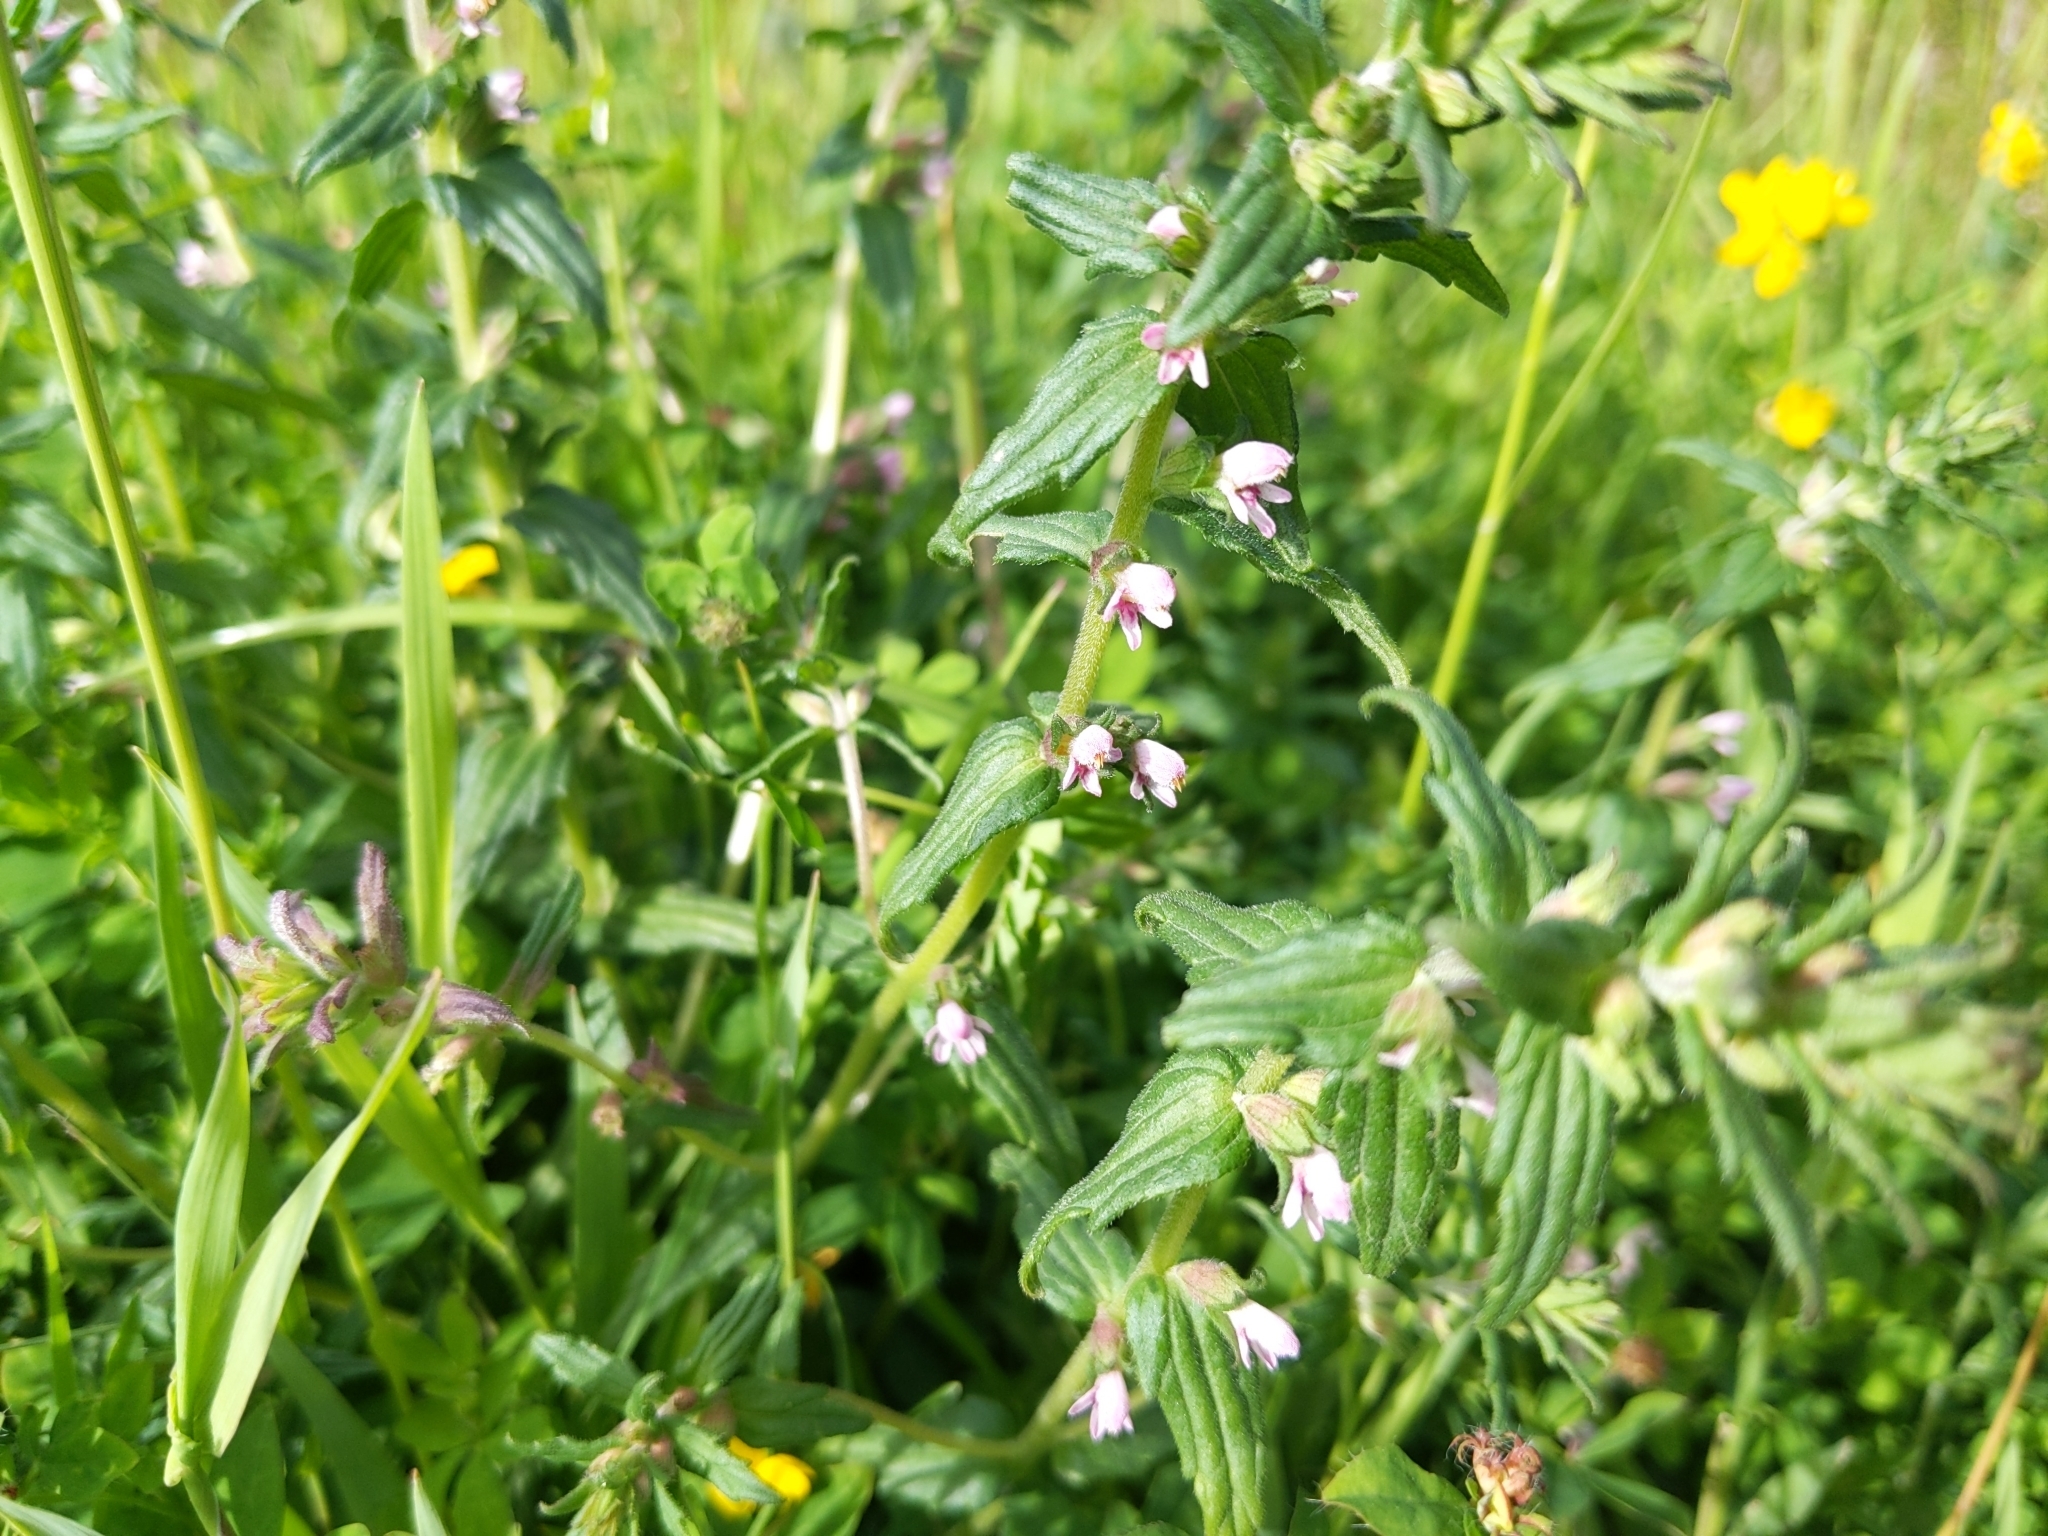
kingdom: Plantae
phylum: Tracheophyta
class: Magnoliopsida
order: Lamiales
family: Orobanchaceae
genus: Odontites
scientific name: Odontites vernus
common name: Red bartsia
